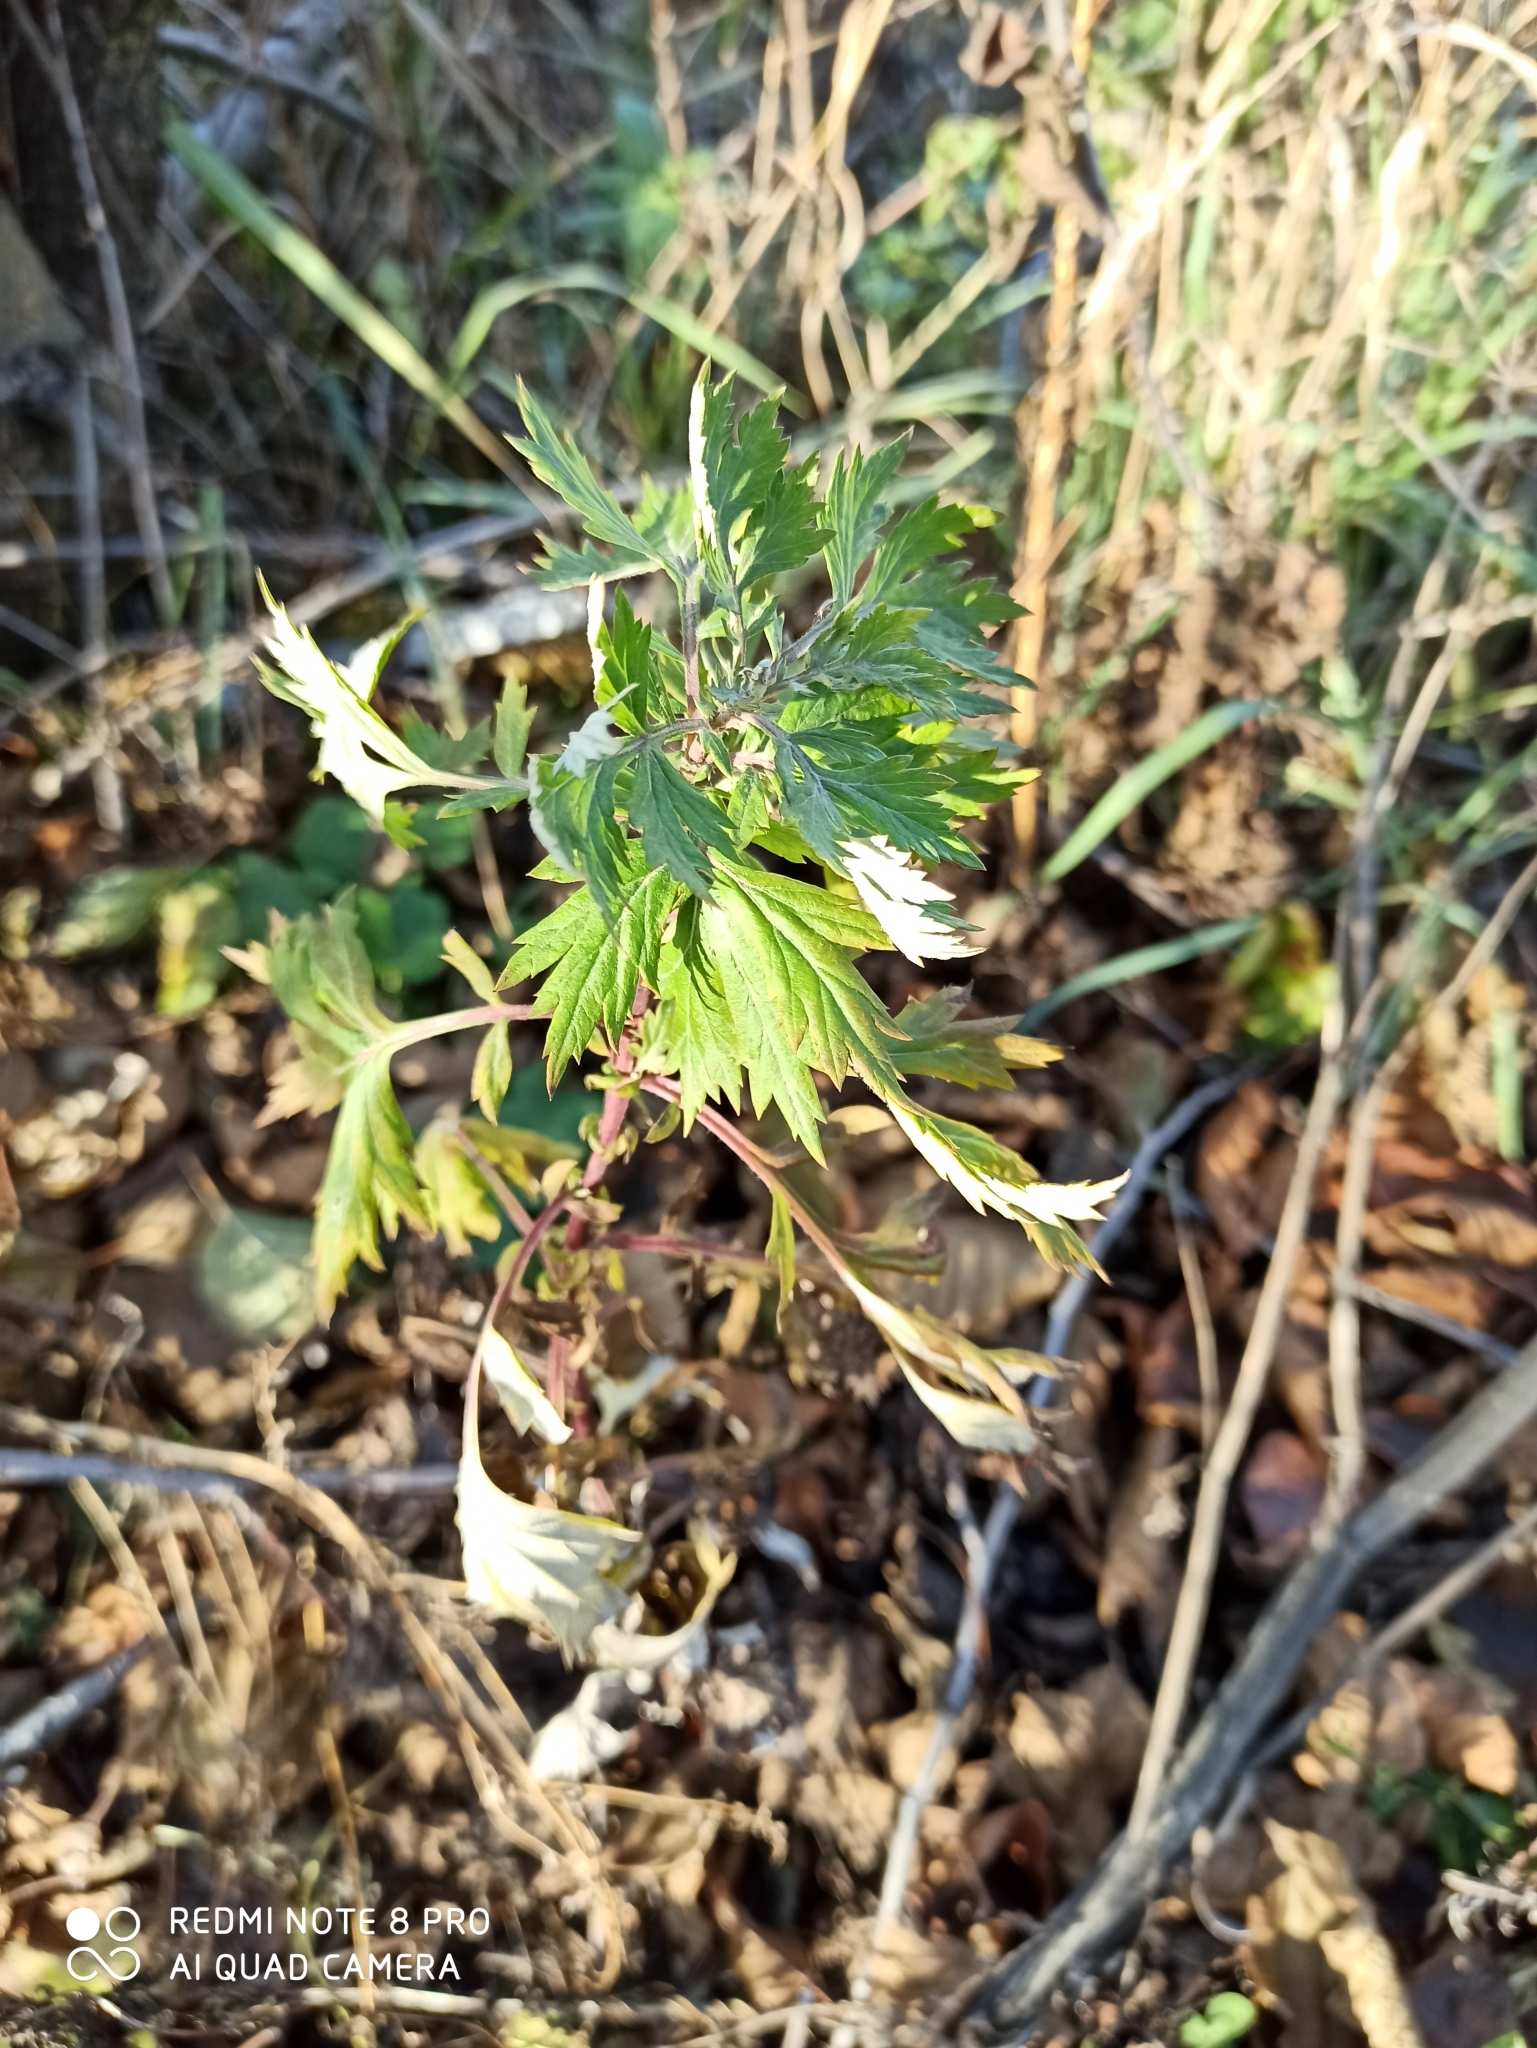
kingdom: Plantae
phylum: Tracheophyta
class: Magnoliopsida
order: Asterales
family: Asteraceae
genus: Artemisia
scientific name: Artemisia vulgaris
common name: Mugwort
